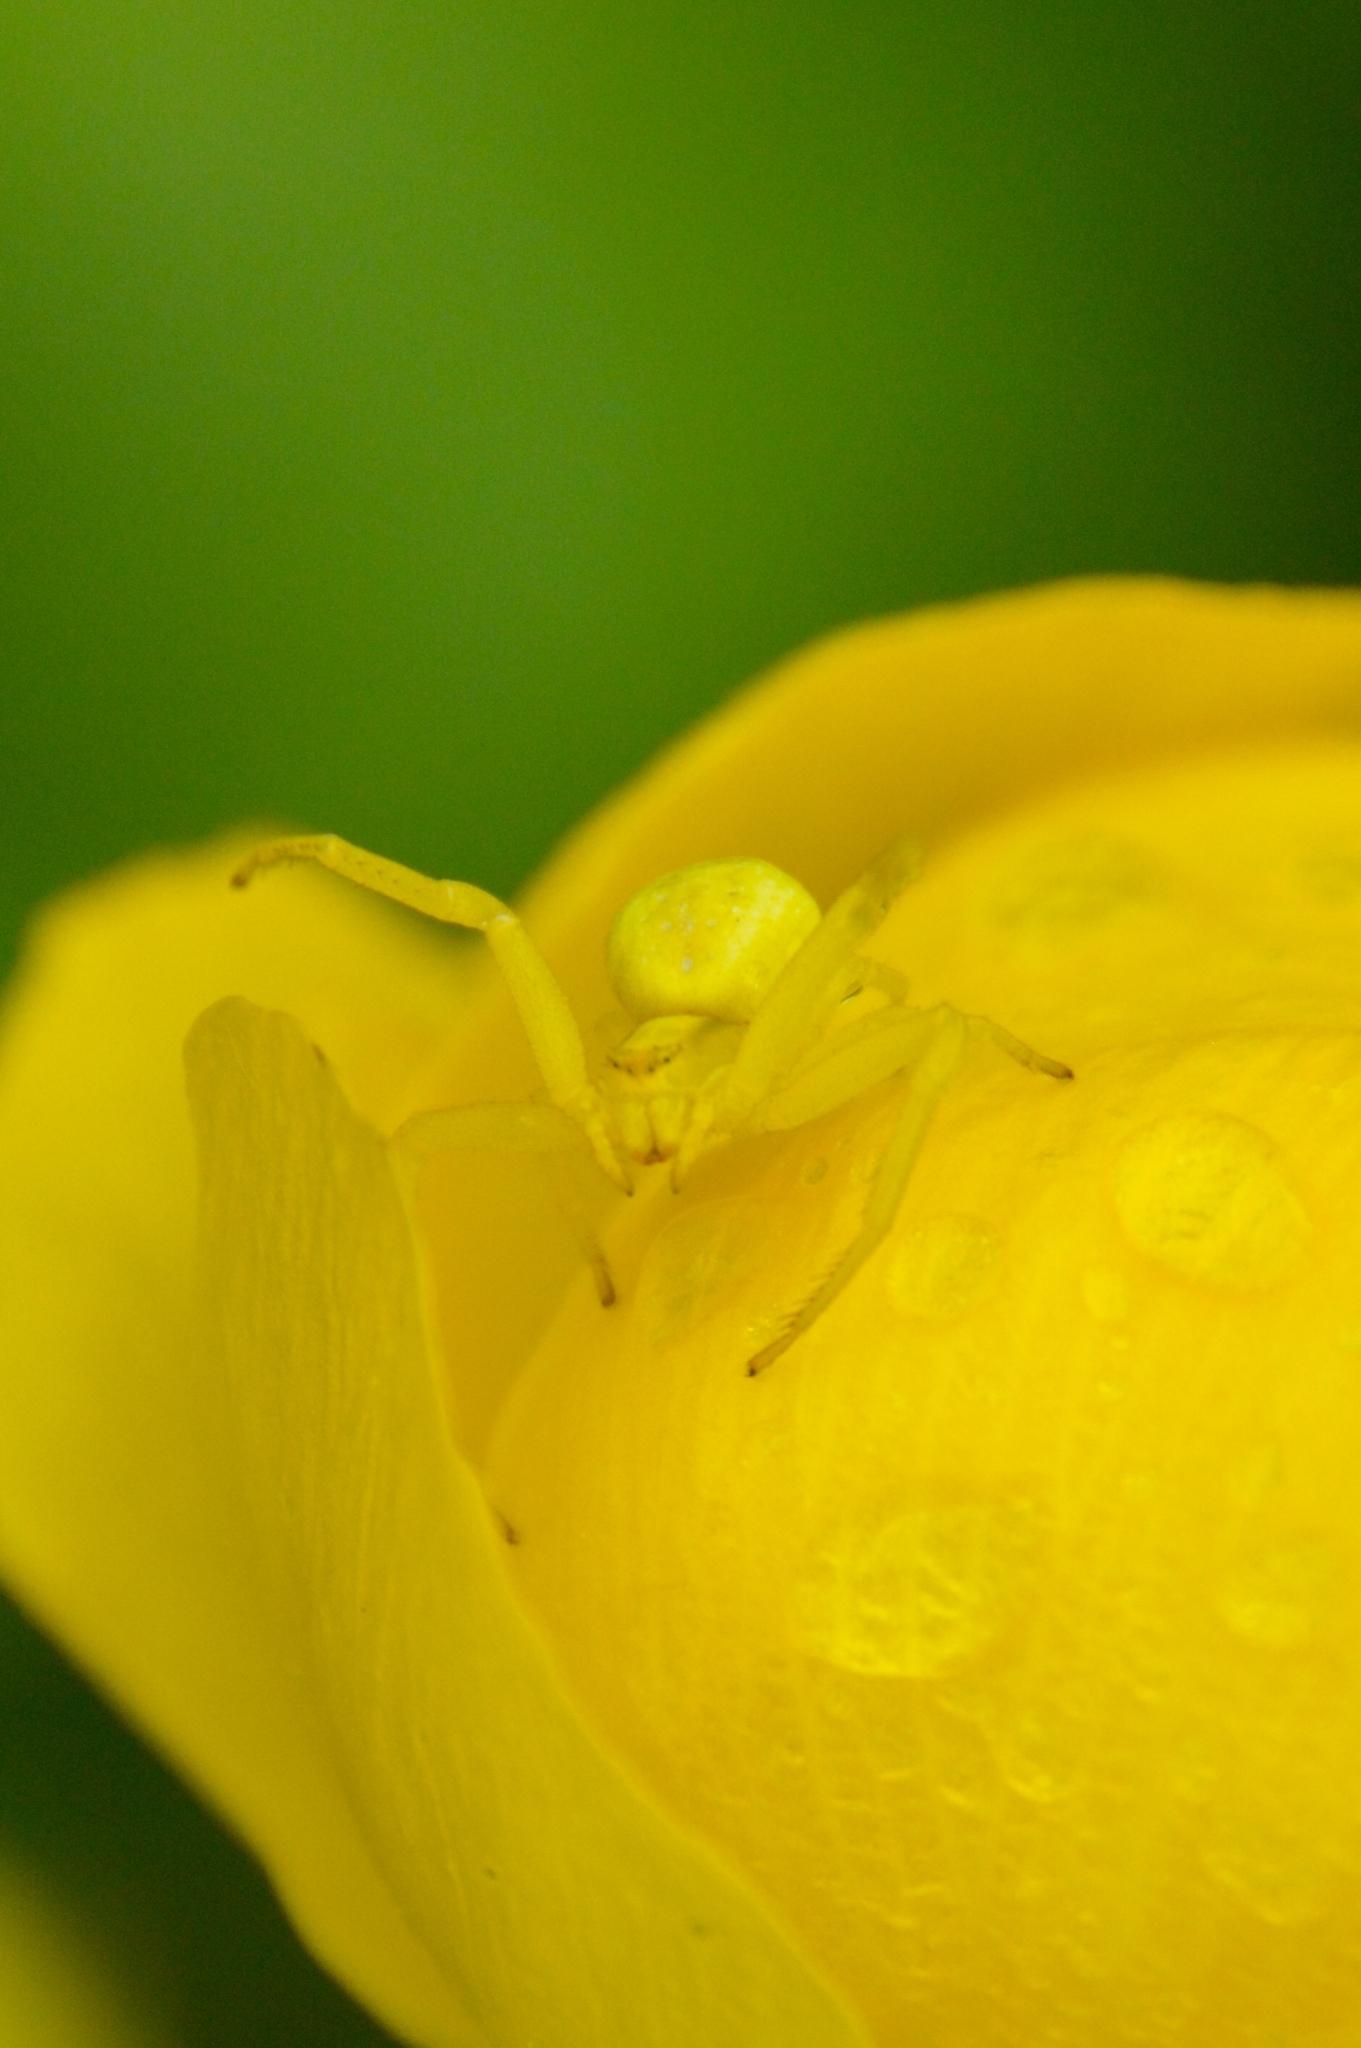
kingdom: Animalia
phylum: Arthropoda
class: Arachnida
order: Araneae
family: Thomisidae
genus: Misumena
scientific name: Misumena vatia
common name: Goldenrod crab spider
